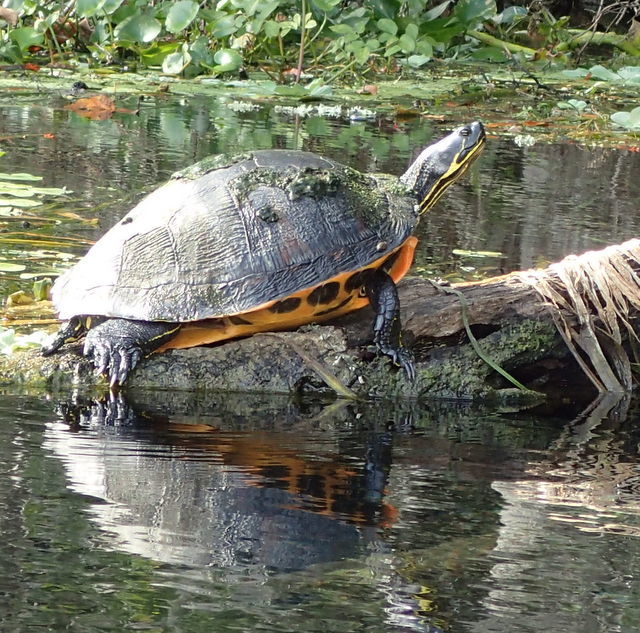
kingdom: Animalia
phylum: Chordata
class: Testudines
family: Emydidae
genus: Pseudemys
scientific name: Pseudemys nelsoni
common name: Florida red-bellied turtle
